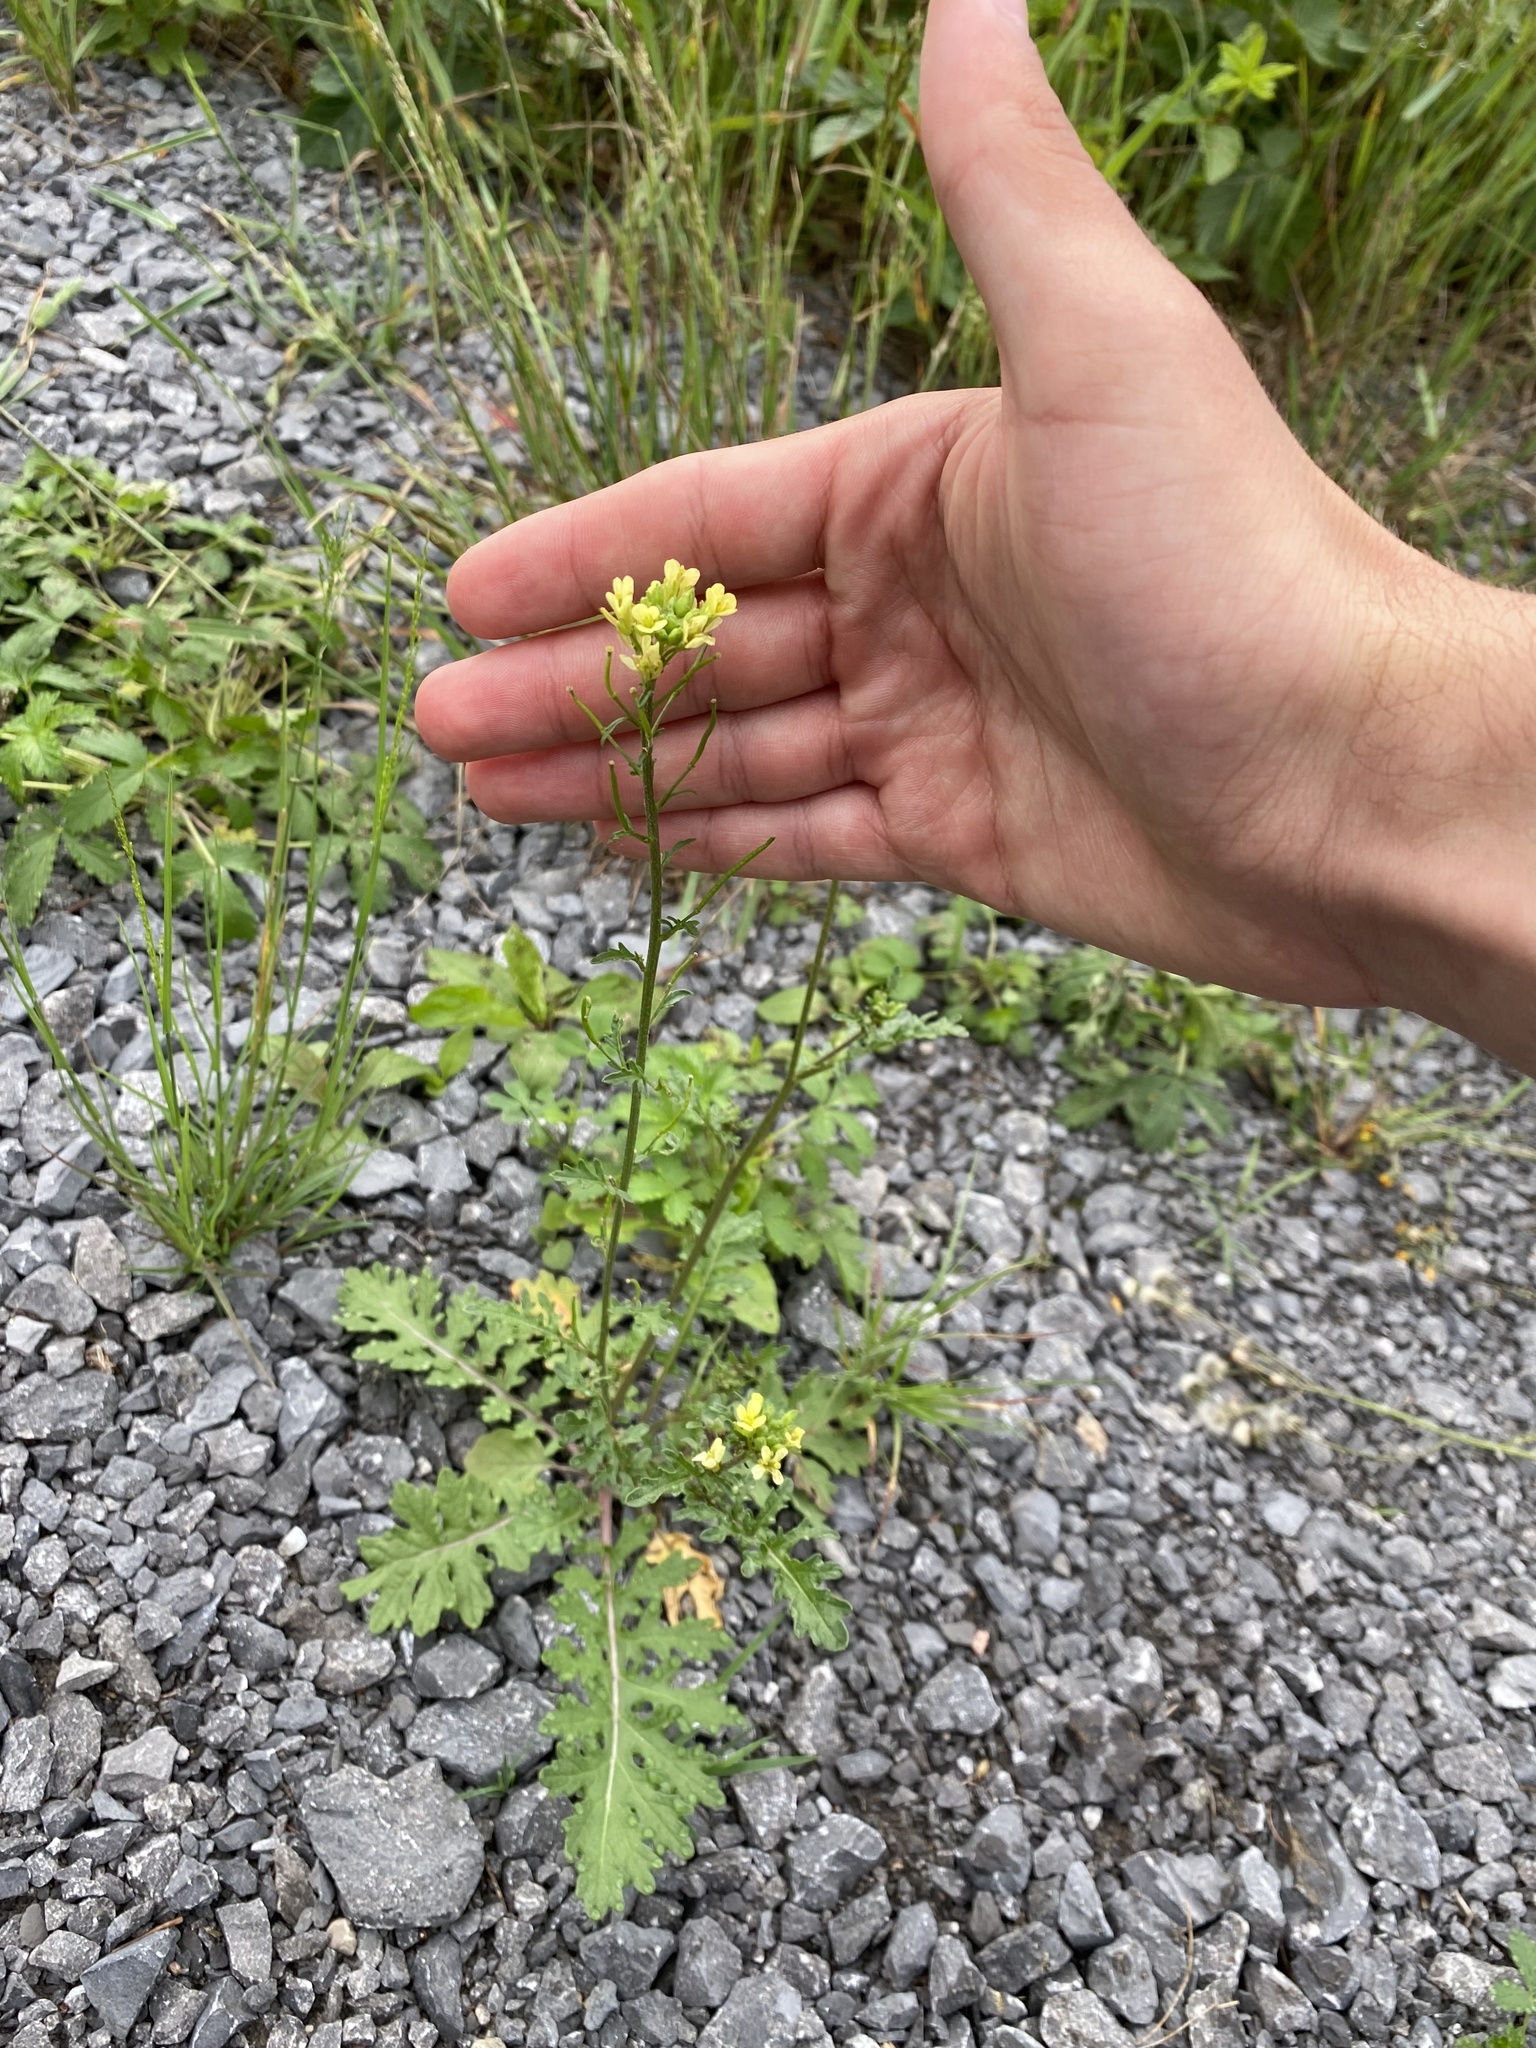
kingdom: Plantae
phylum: Tracheophyta
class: Magnoliopsida
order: Brassicales
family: Brassicaceae
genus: Erucastrum
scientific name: Erucastrum gallicum
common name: Hairy rocket
